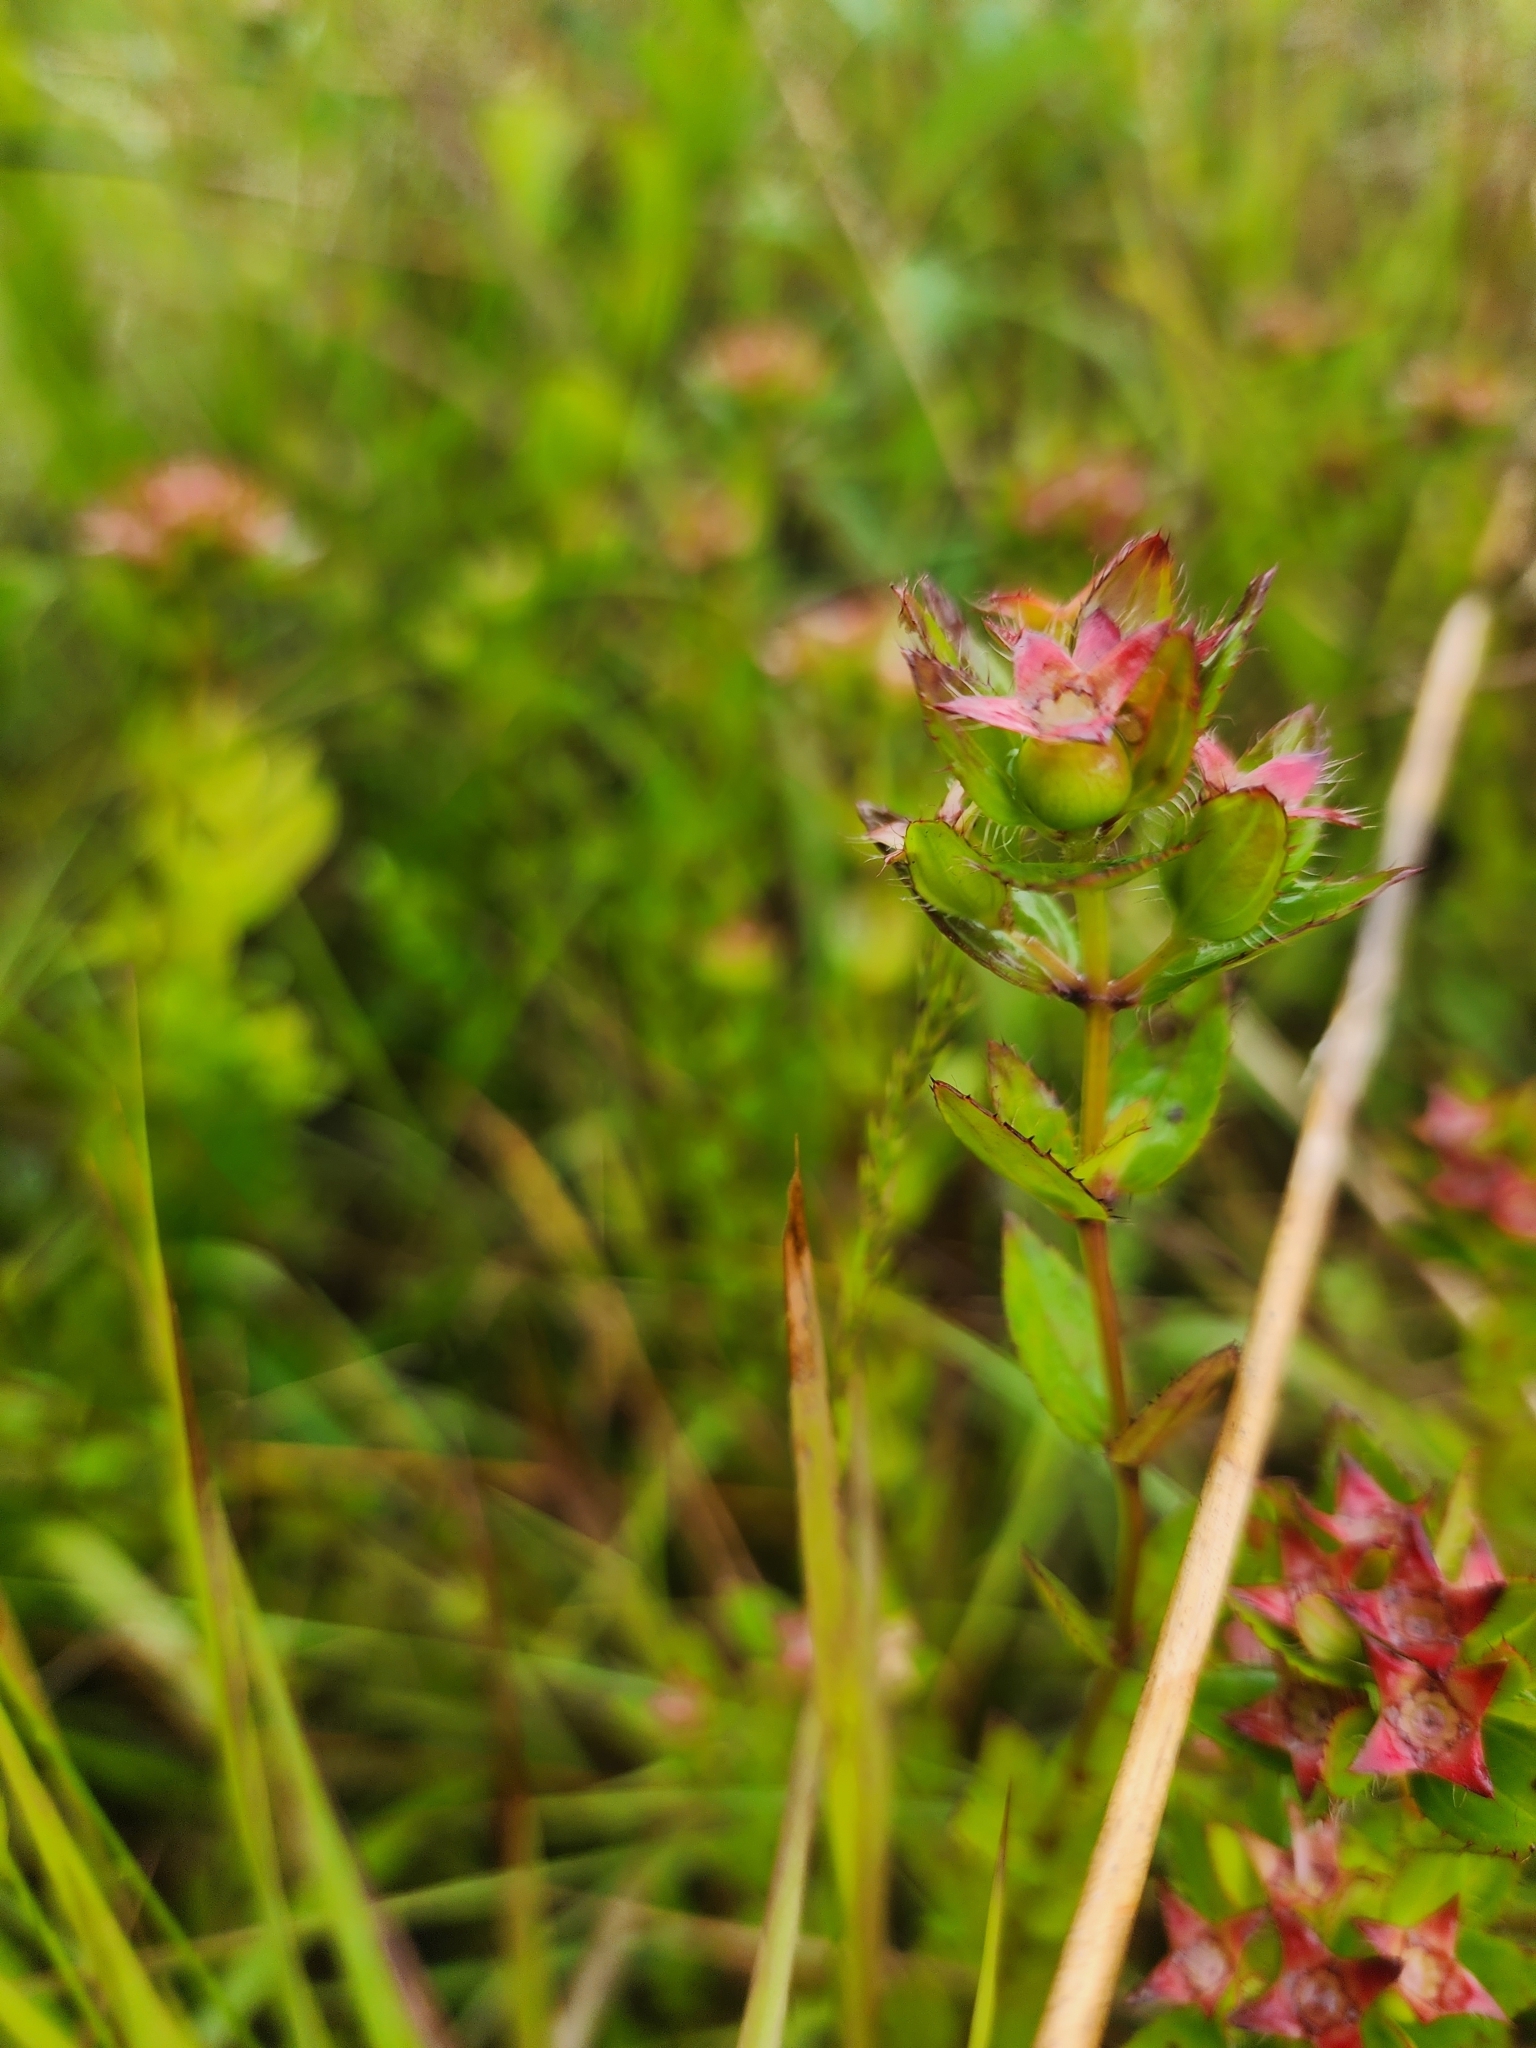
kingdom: Plantae
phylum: Tracheophyta
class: Magnoliopsida
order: Myrtales
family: Melastomataceae
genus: Rhexia
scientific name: Rhexia petiolata
